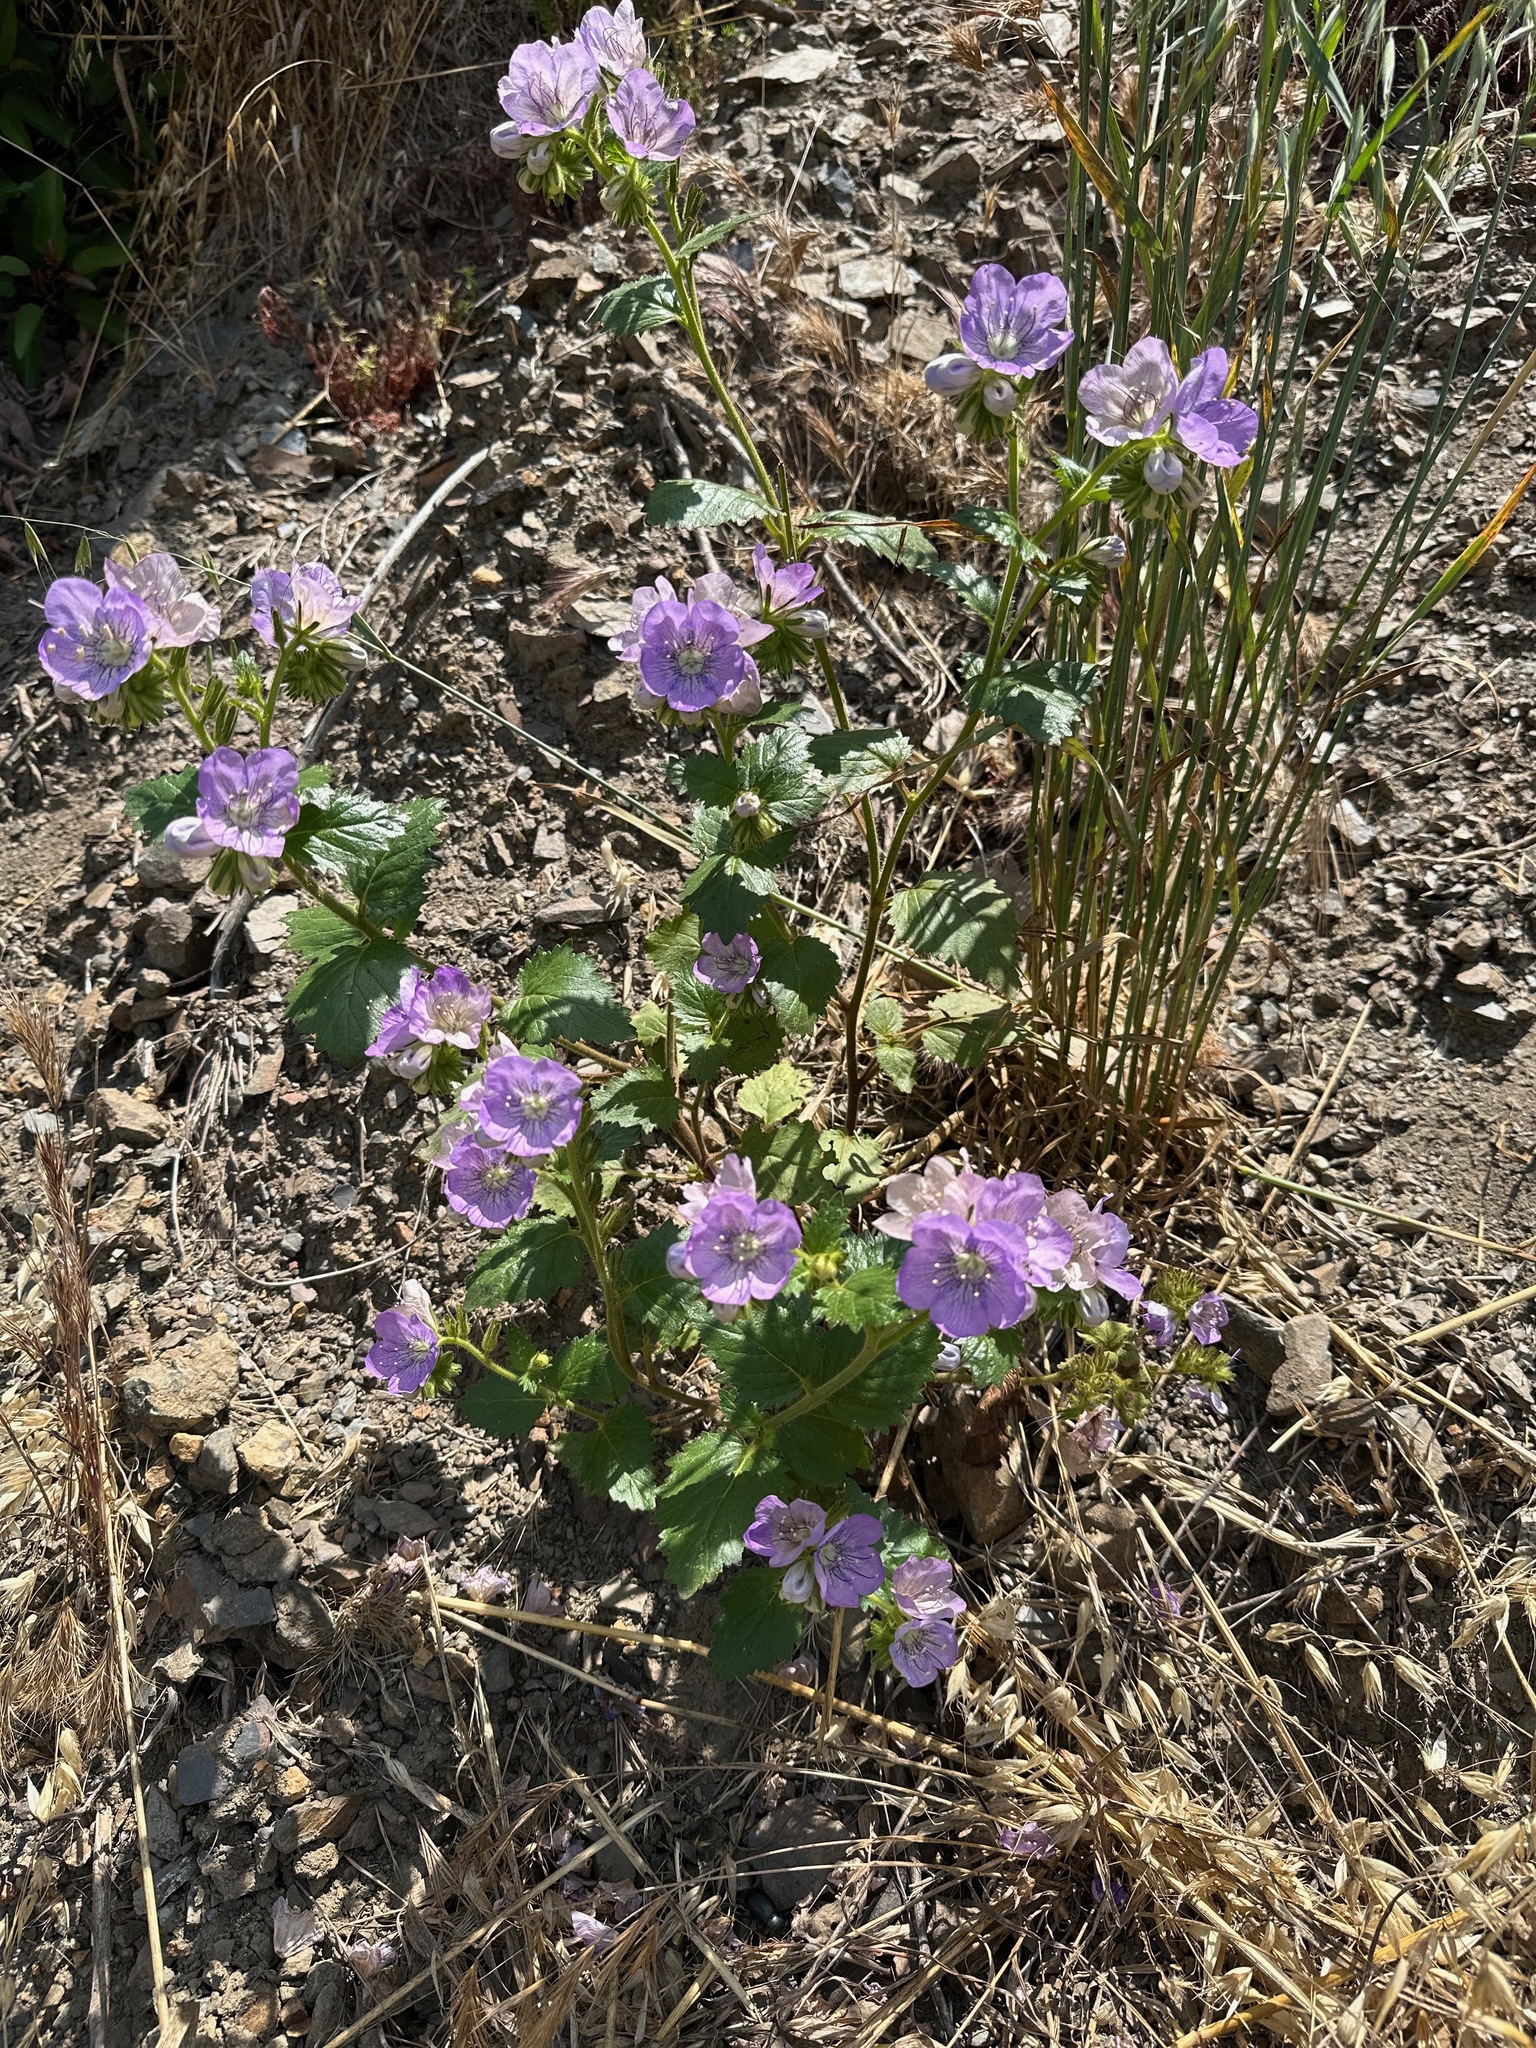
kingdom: Plantae
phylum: Tracheophyta
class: Magnoliopsida
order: Boraginales
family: Hydrophyllaceae
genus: Phacelia
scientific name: Phacelia grandiflora
